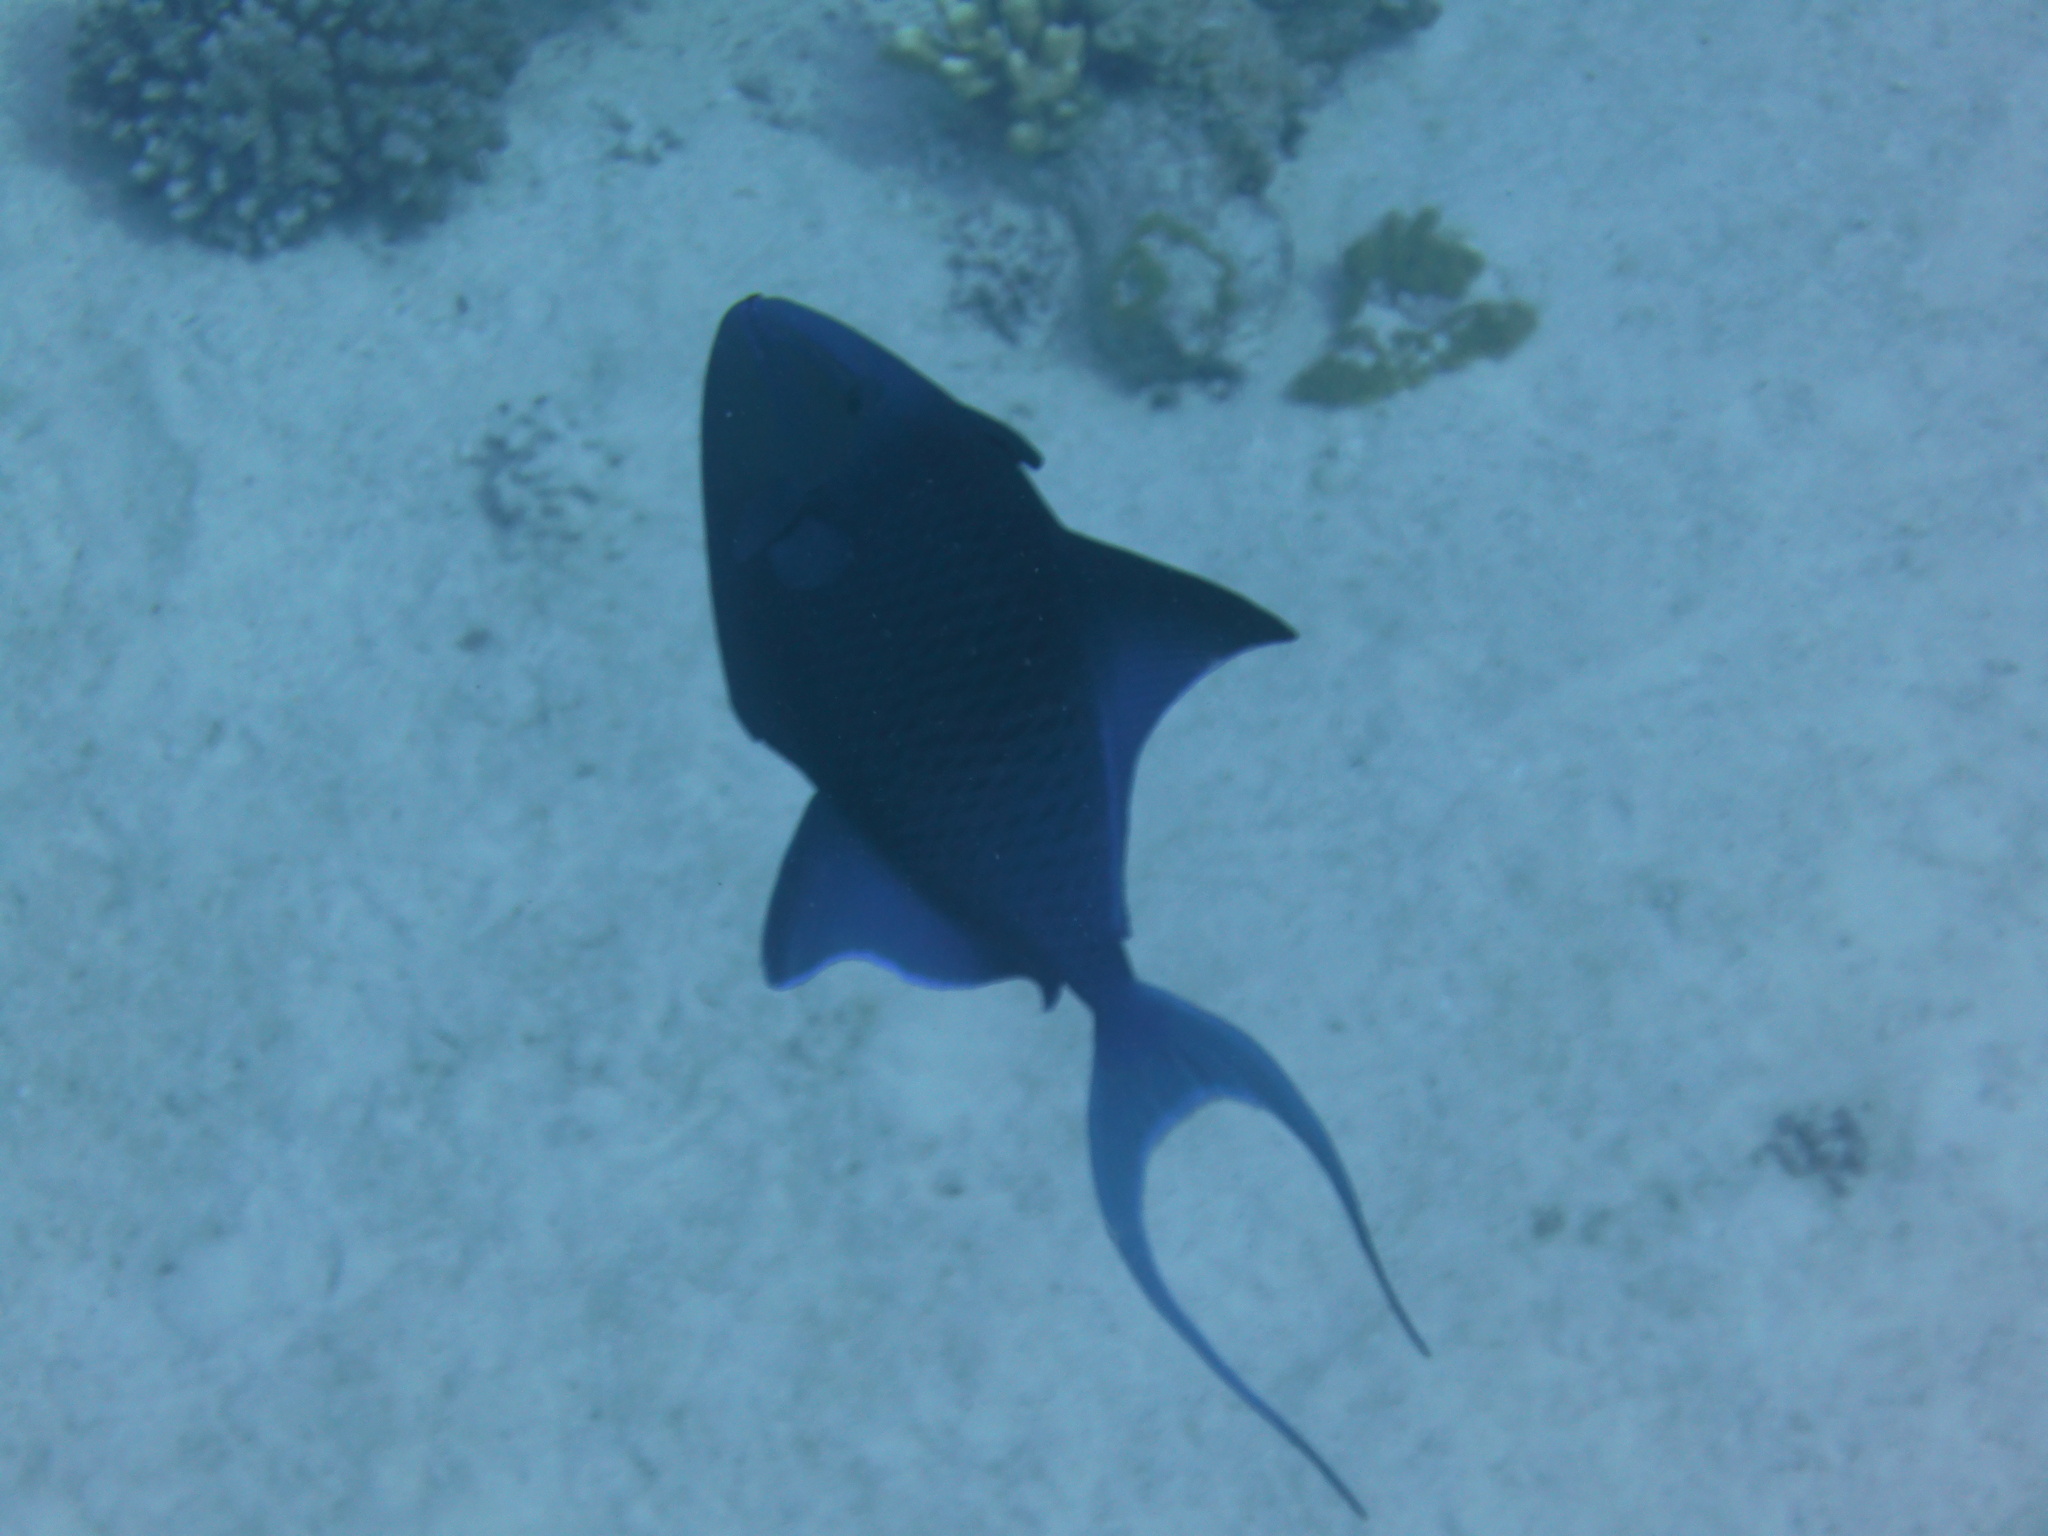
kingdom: Animalia
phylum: Chordata
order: Tetraodontiformes
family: Balistidae
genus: Odonus
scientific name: Odonus niger
